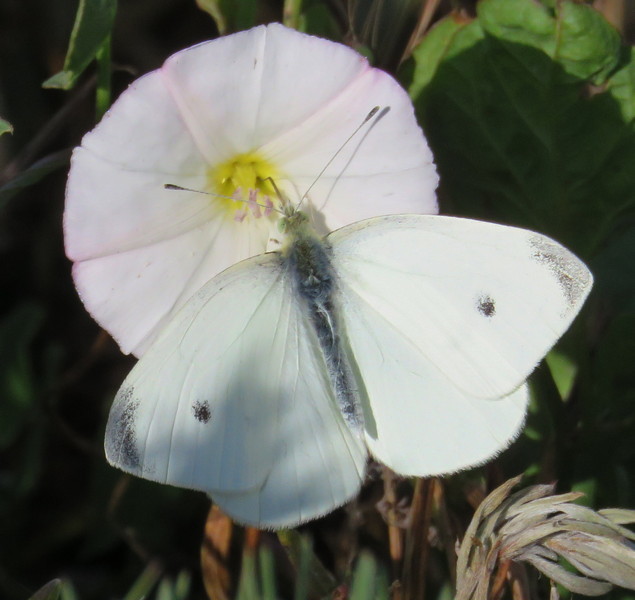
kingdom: Animalia
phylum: Arthropoda
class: Insecta
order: Lepidoptera
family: Pieridae
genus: Pieris
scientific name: Pieris rapae
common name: Small white
